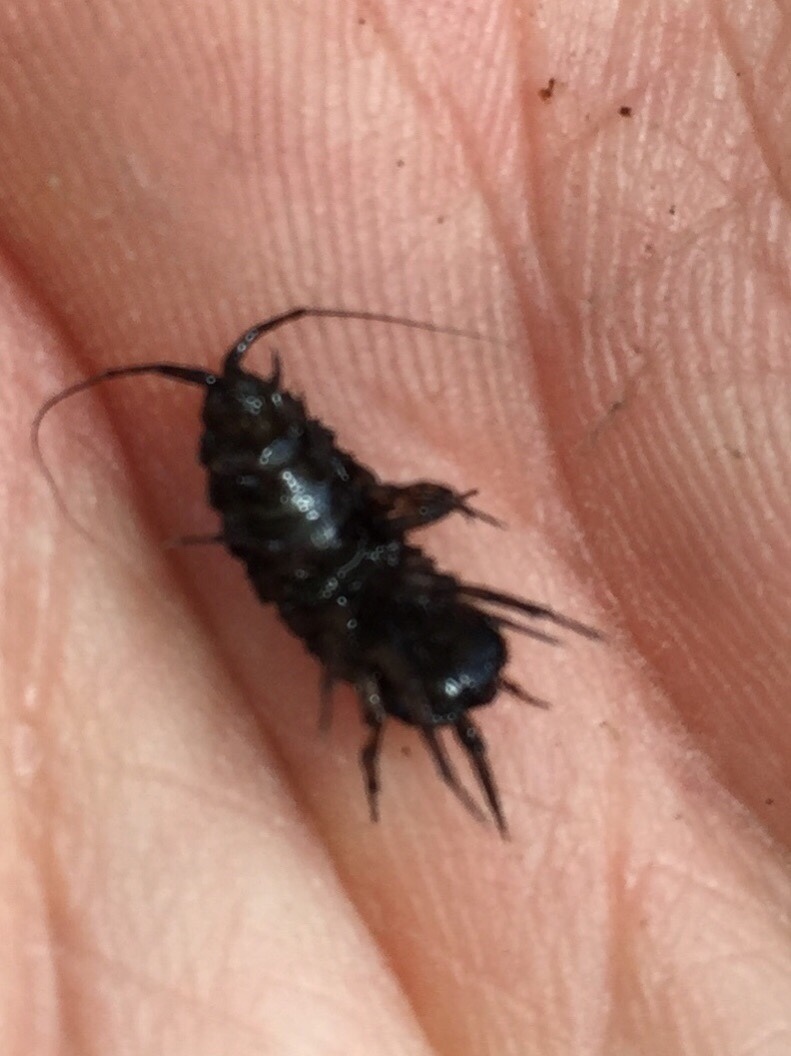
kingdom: Animalia
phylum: Arthropoda
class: Malacostraca
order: Isopoda
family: Asellidae
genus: Asellus
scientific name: Asellus aquaticus
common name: Water hog lice/slaters
